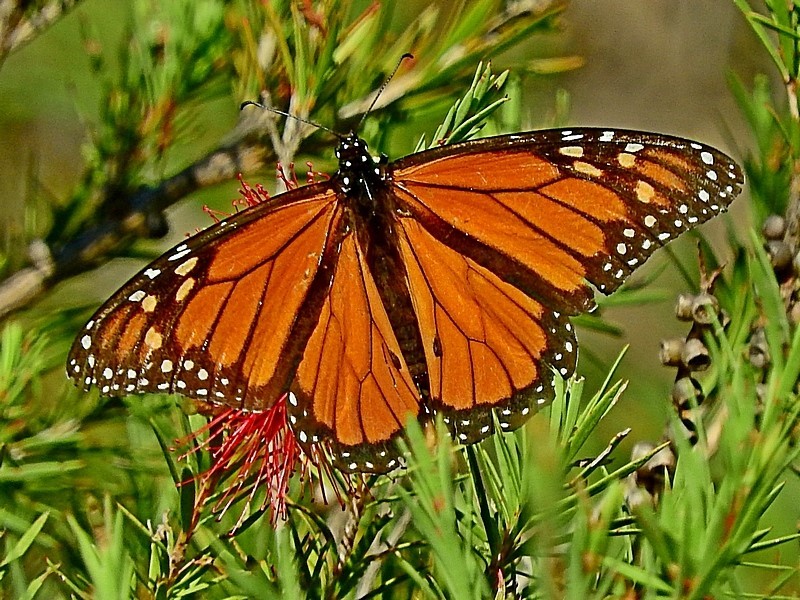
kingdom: Animalia
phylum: Arthropoda
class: Insecta
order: Lepidoptera
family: Nymphalidae
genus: Danaus
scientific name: Danaus plexippus
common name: Monarch
